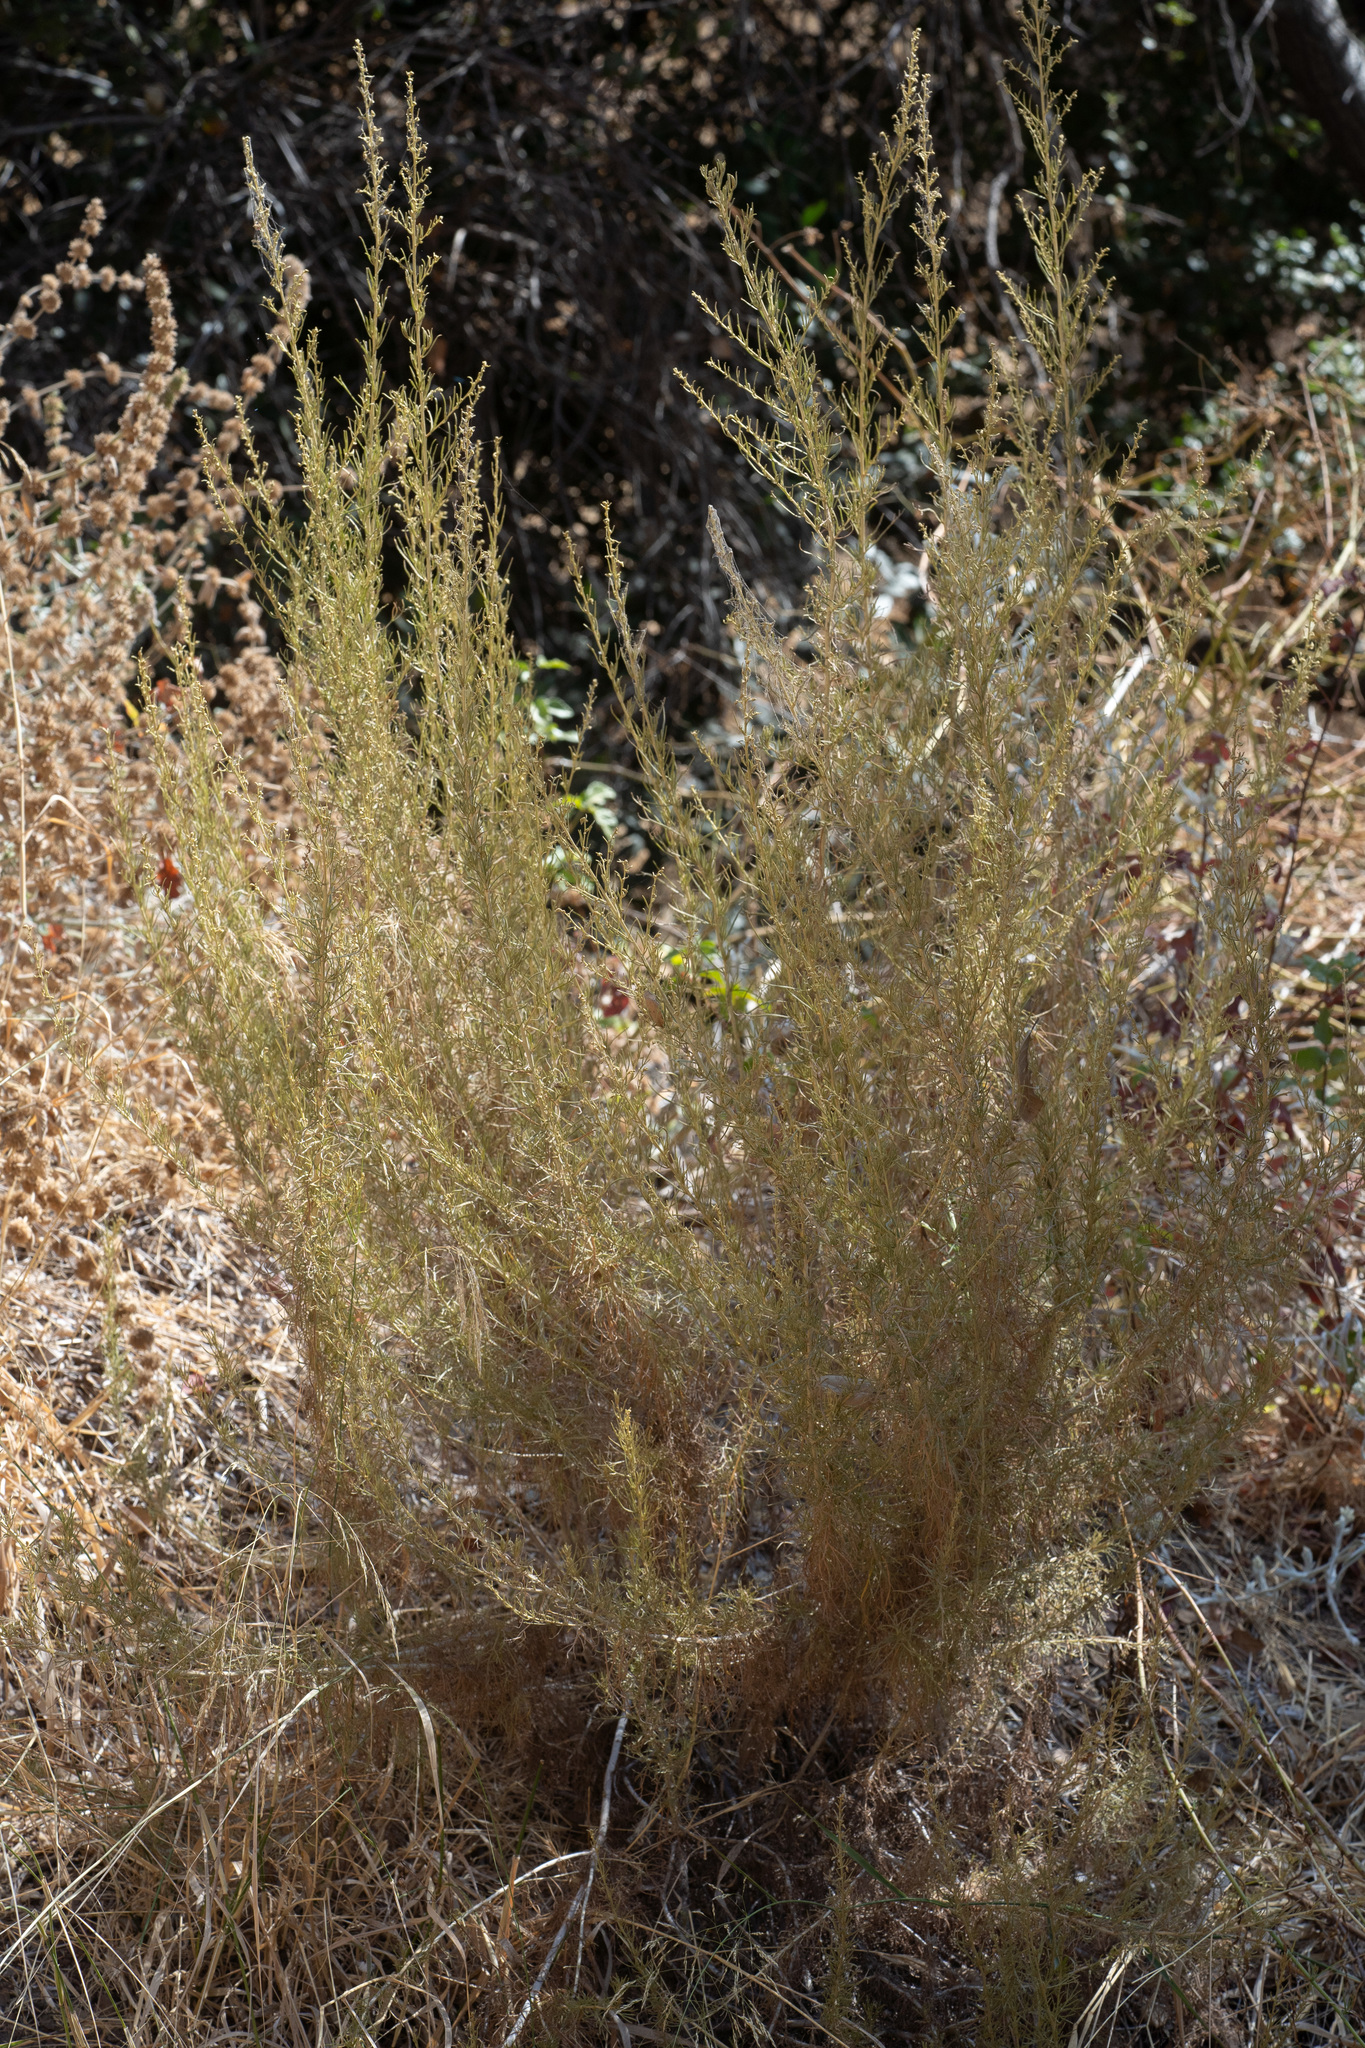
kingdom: Plantae
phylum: Tracheophyta
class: Magnoliopsida
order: Asterales
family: Asteraceae
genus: Artemisia
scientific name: Artemisia californica
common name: California sagebrush
